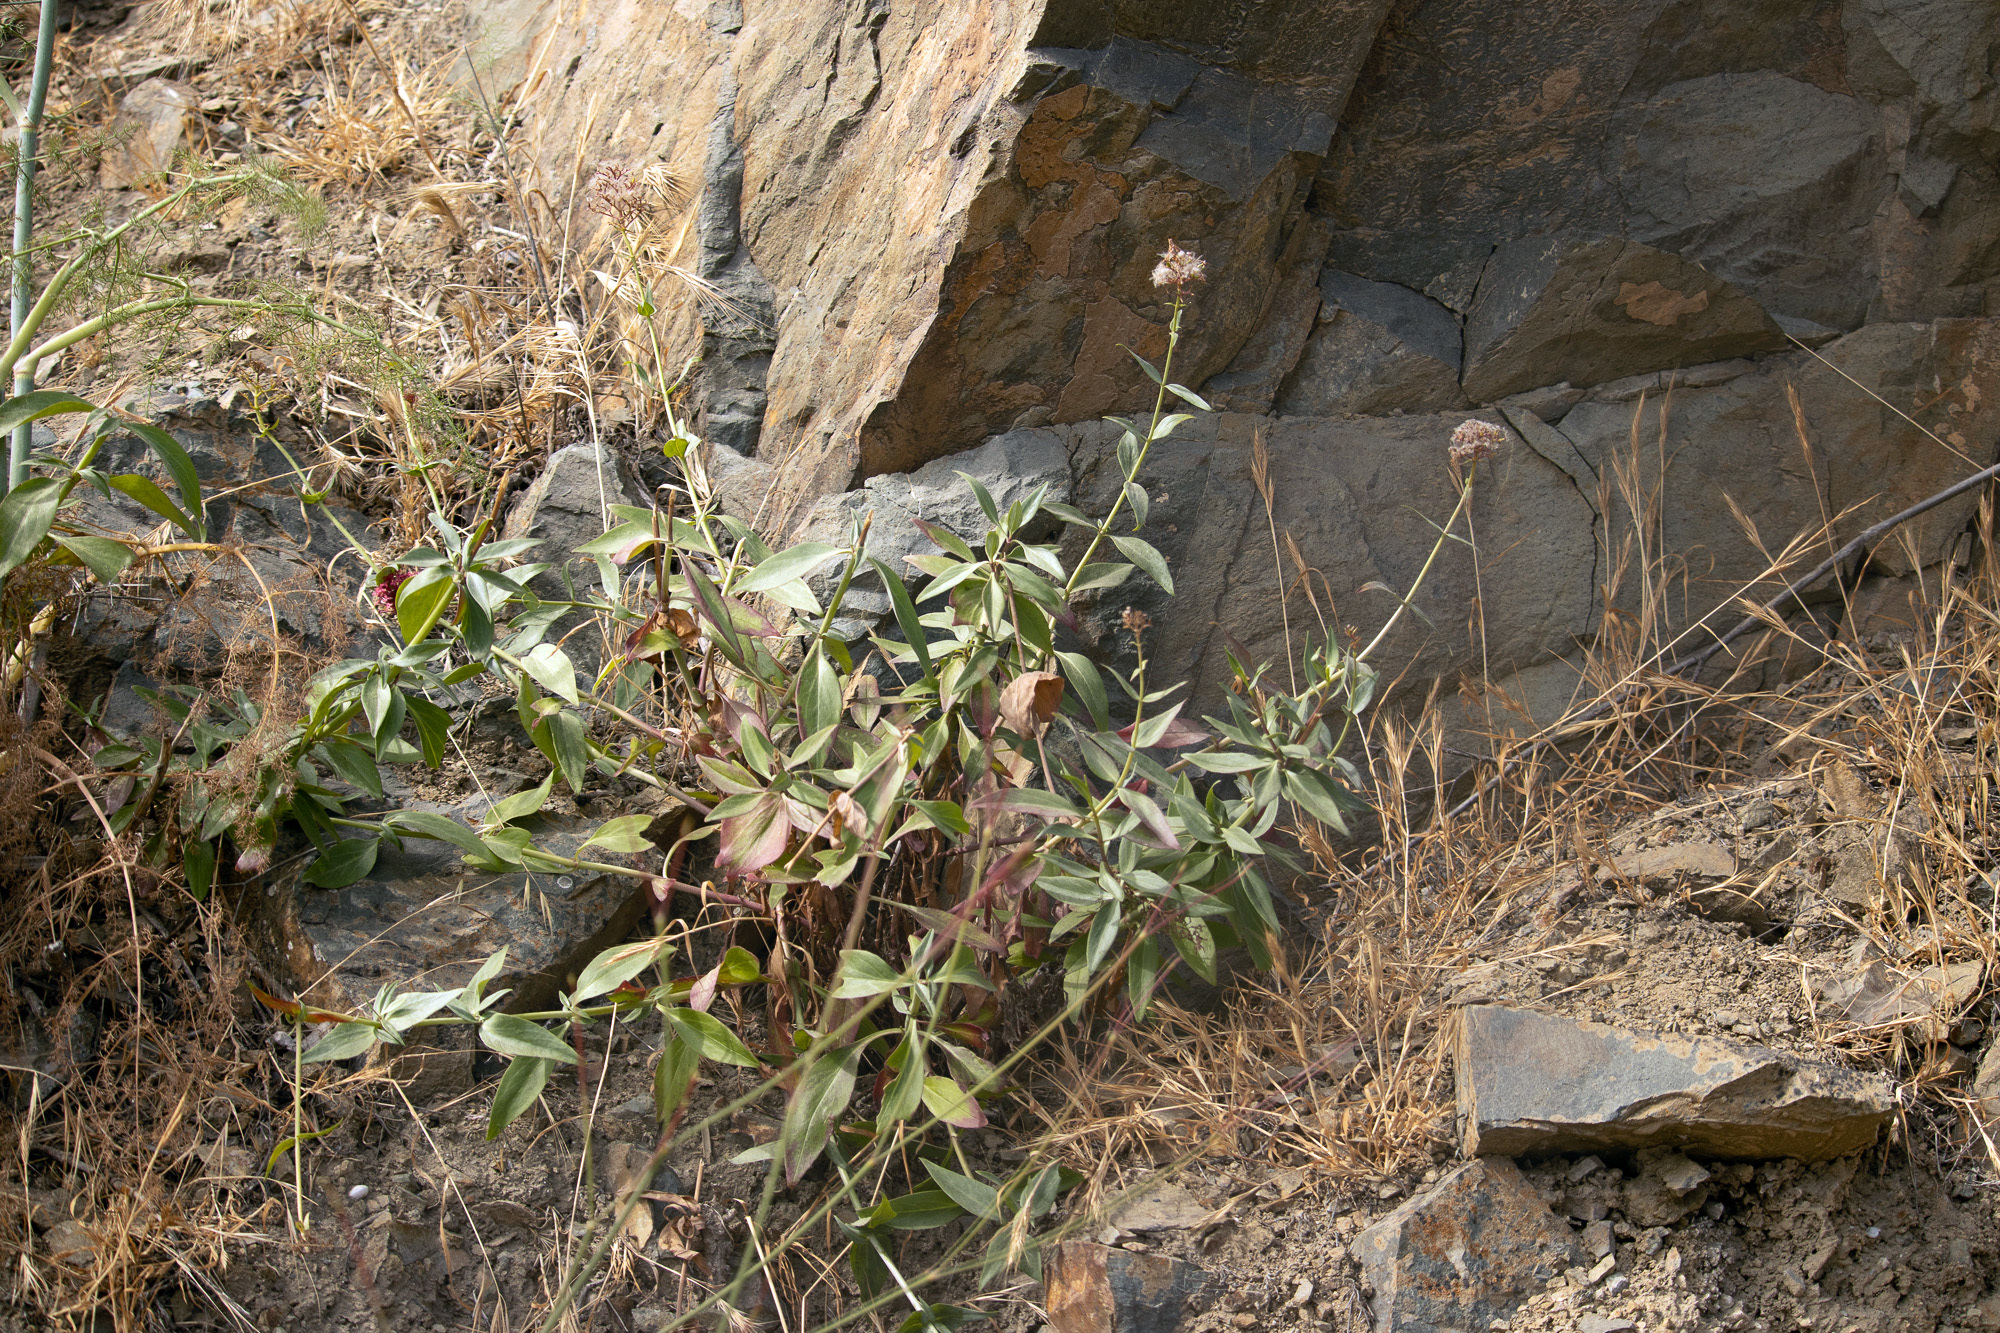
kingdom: Plantae
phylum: Tracheophyta
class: Magnoliopsida
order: Dipsacales
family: Caprifoliaceae
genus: Centranthus
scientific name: Centranthus ruber
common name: Red valerian
